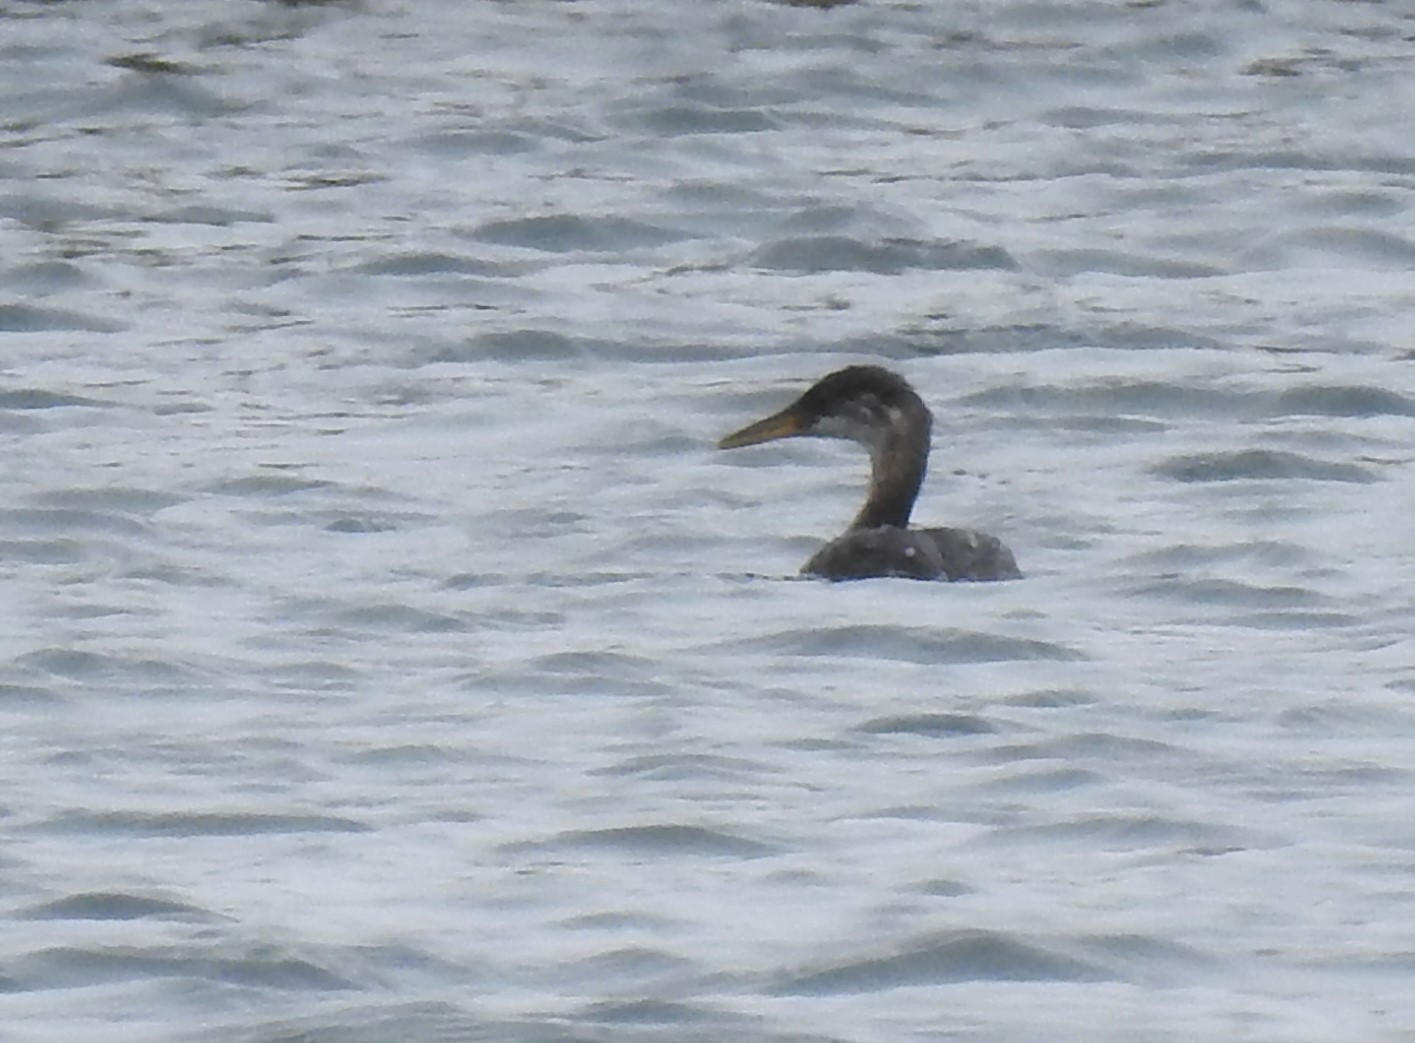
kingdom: Animalia
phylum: Chordata
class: Aves
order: Podicipediformes
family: Podicipedidae
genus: Podiceps
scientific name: Podiceps grisegena
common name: Red-necked grebe
